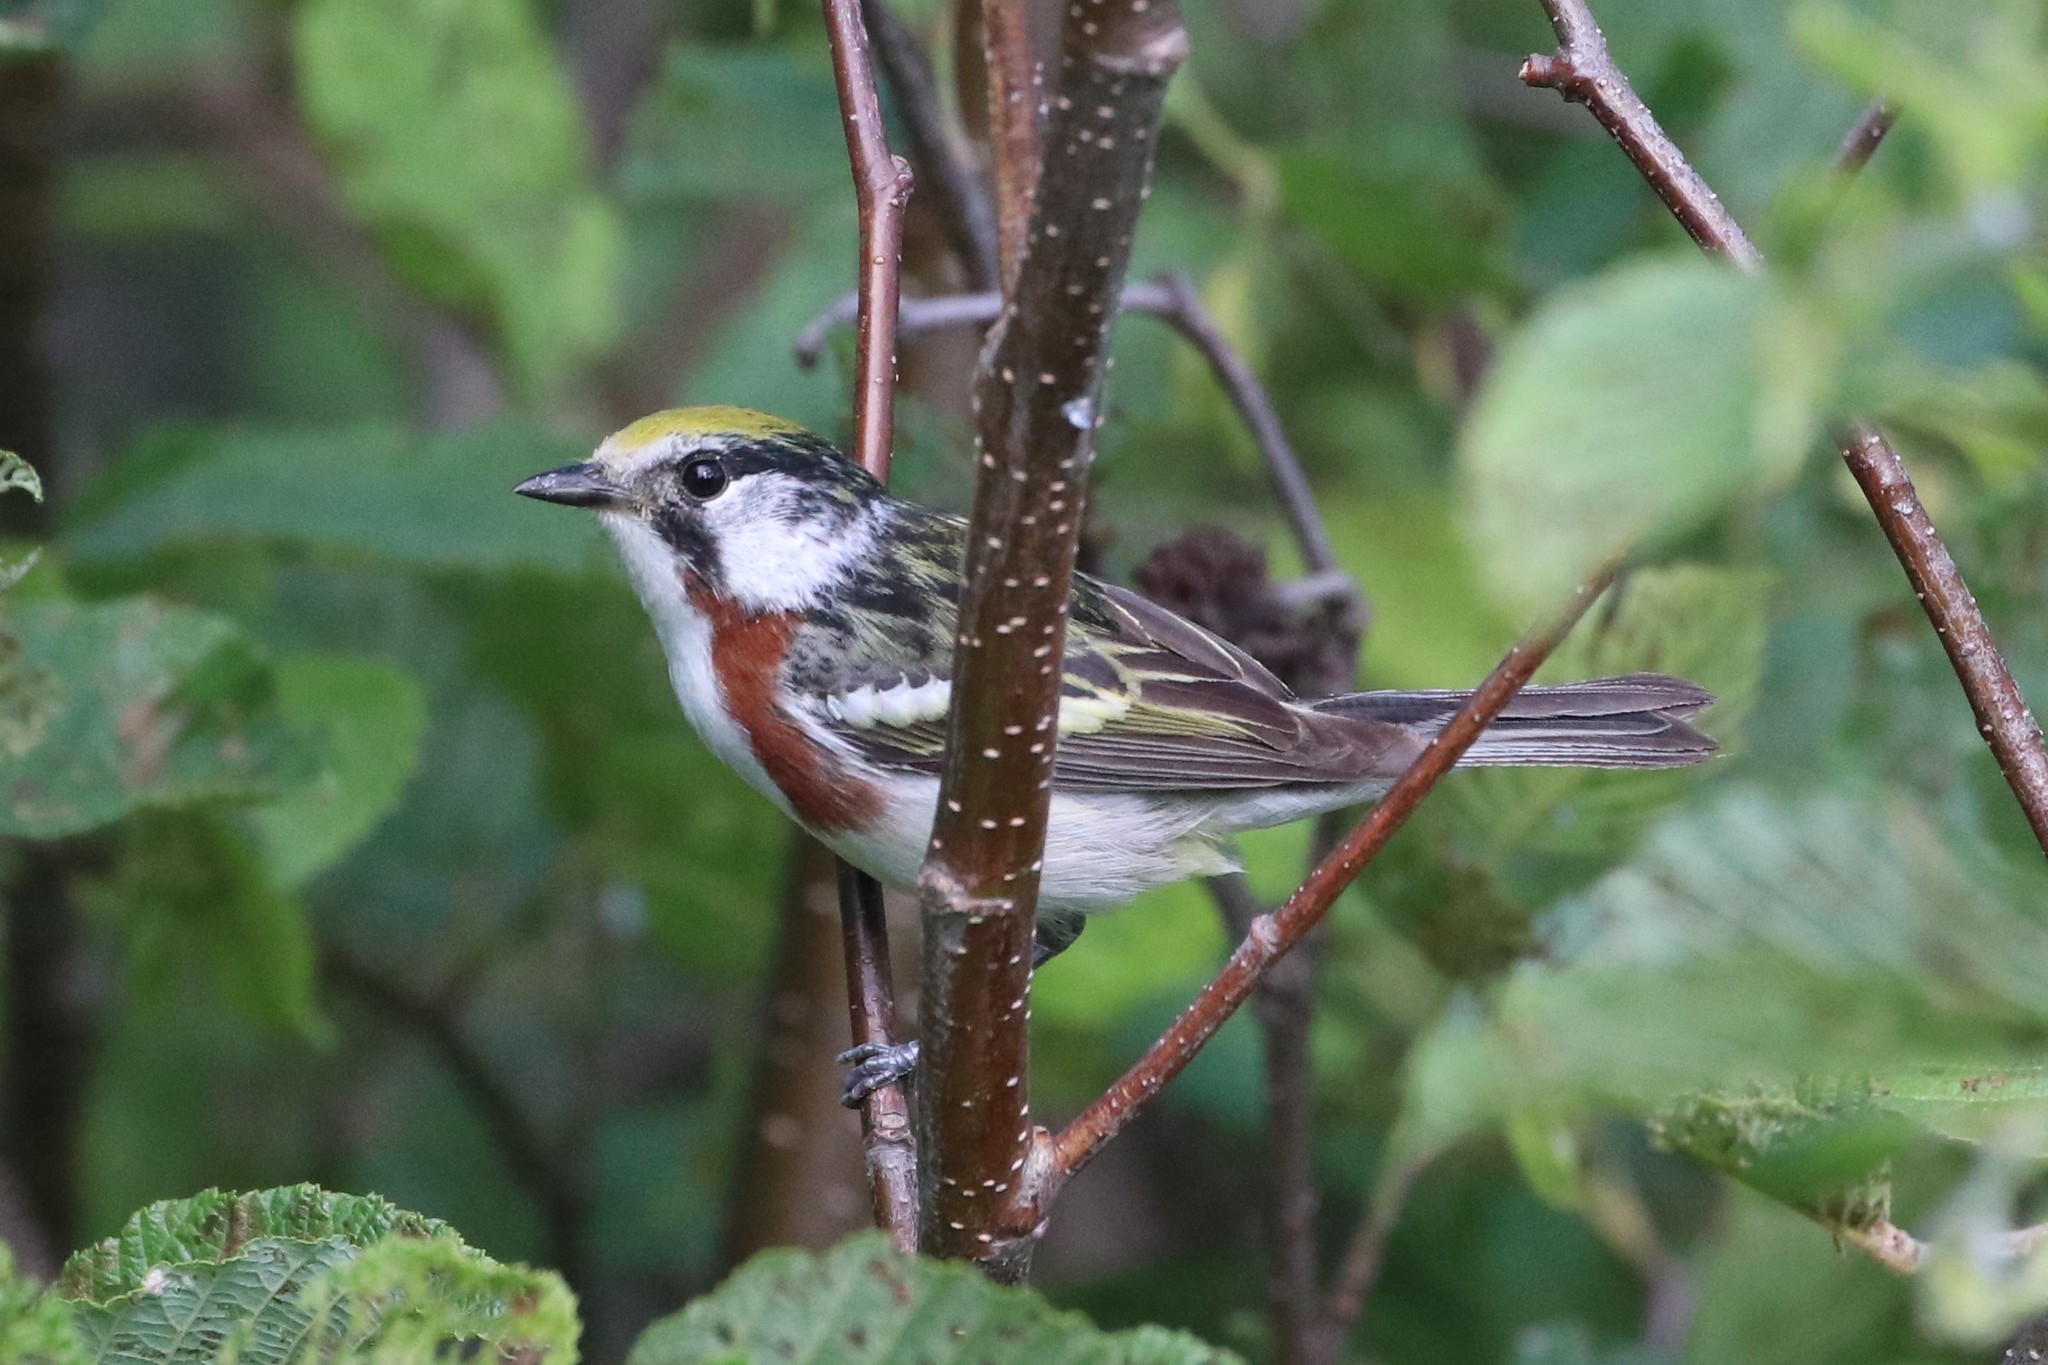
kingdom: Animalia
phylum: Chordata
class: Aves
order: Passeriformes
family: Parulidae
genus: Setophaga
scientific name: Setophaga pensylvanica
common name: Chestnut-sided warbler
